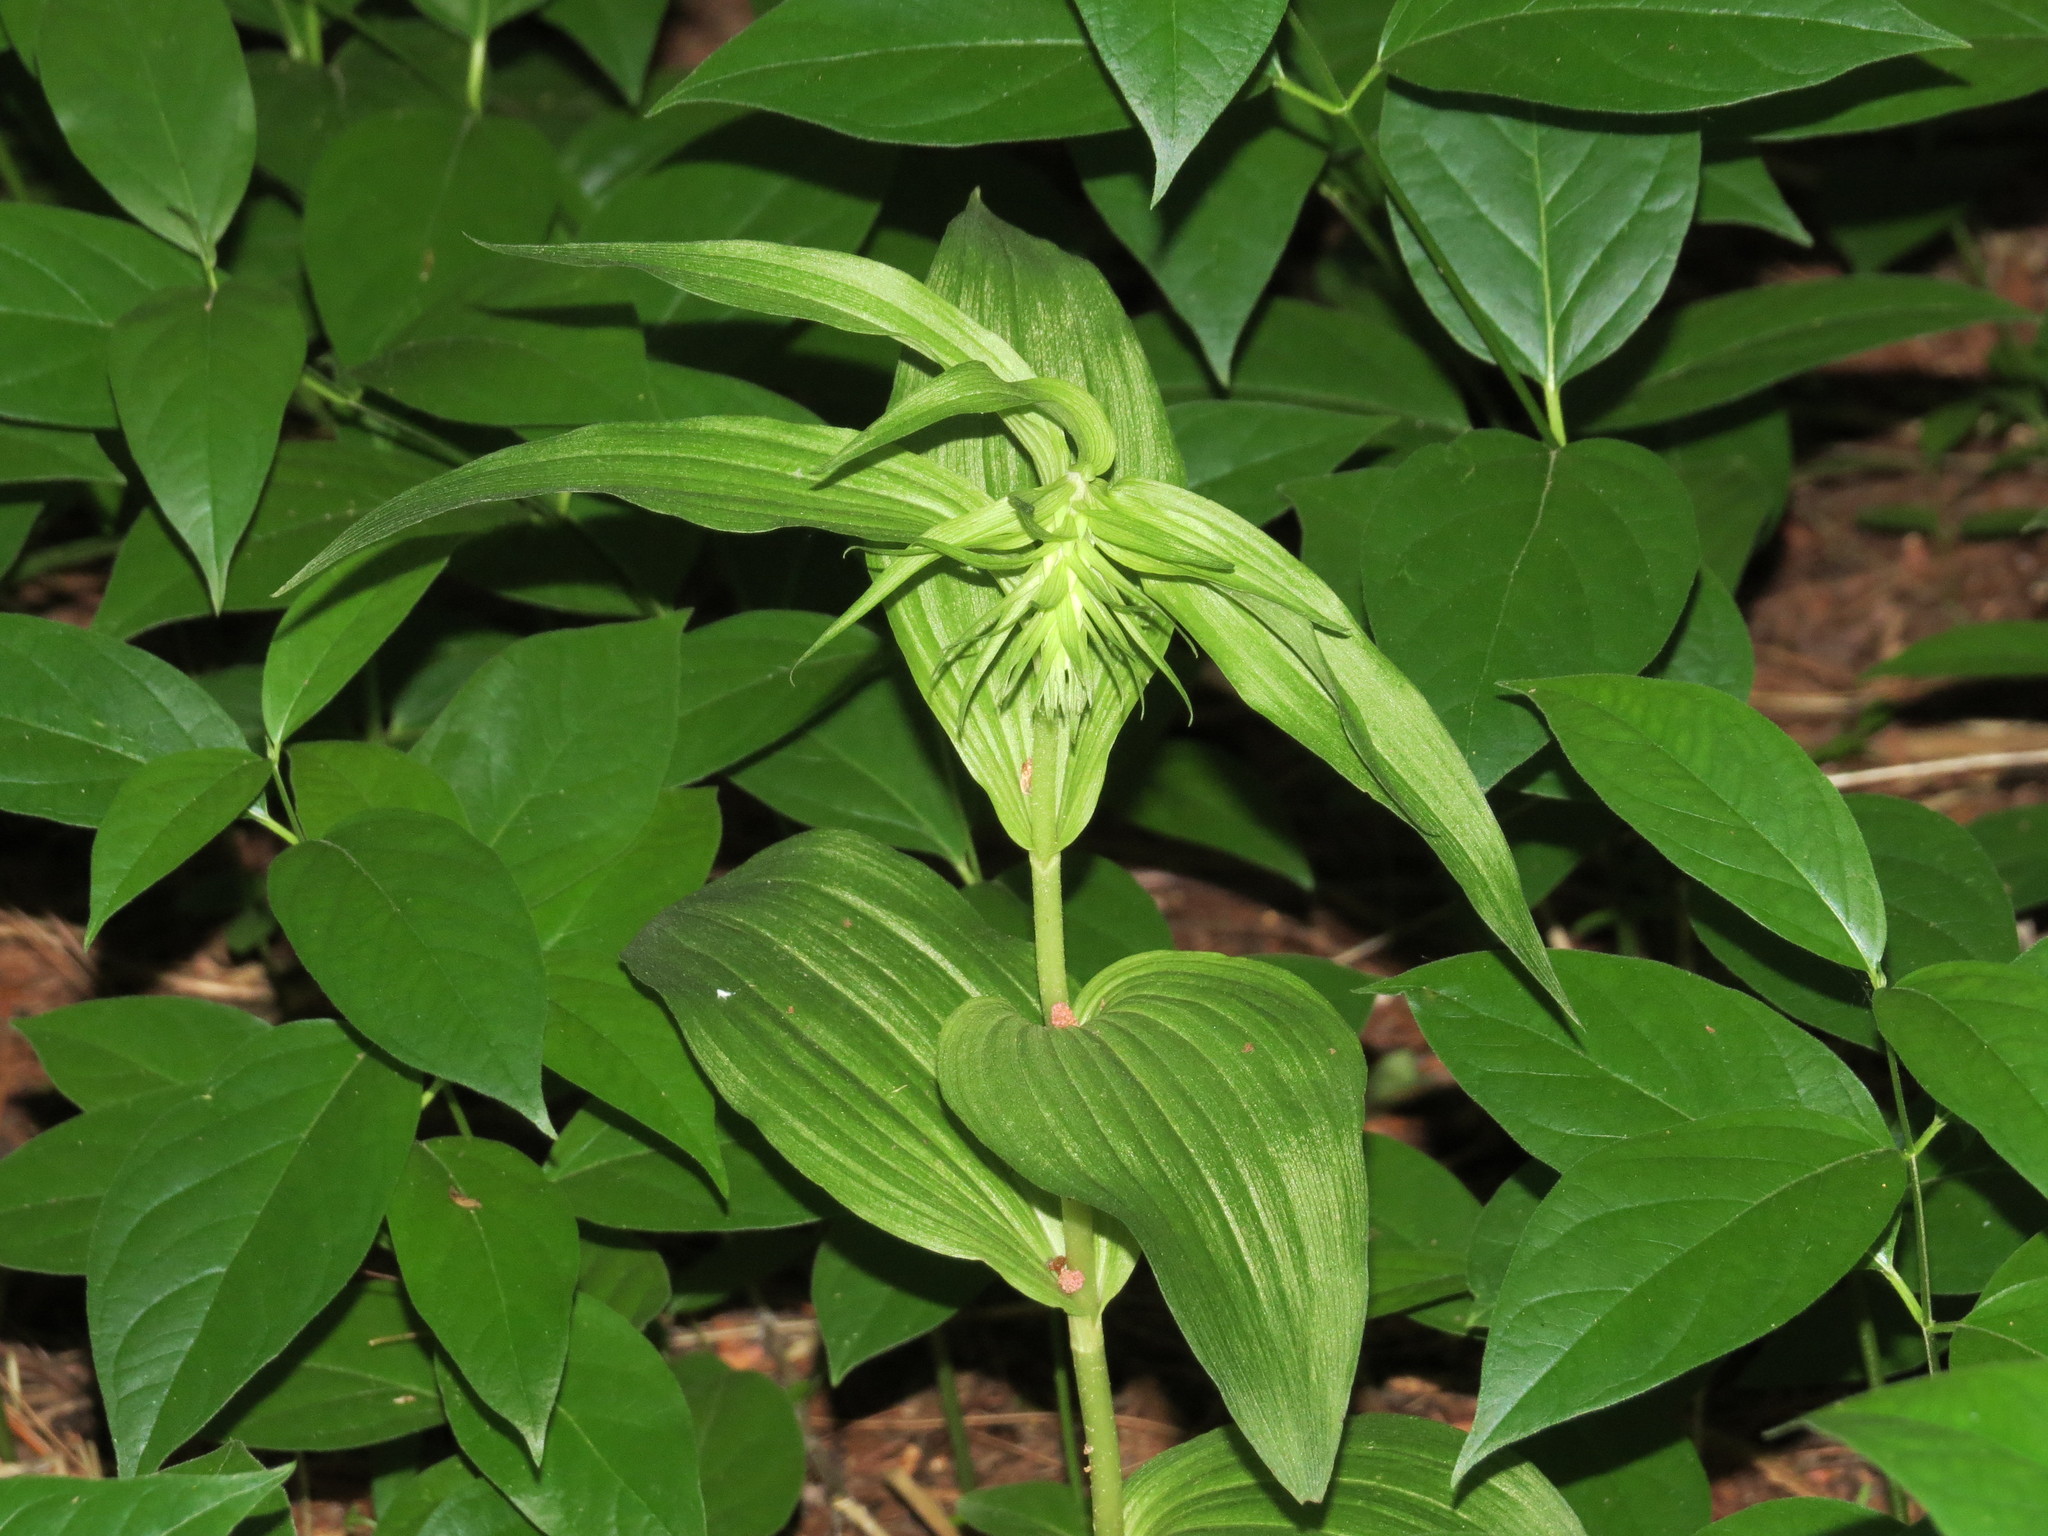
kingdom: Plantae
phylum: Tracheophyta
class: Liliopsida
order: Asparagales
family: Orchidaceae
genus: Epipactis
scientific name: Epipactis helleborine
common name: Broad-leaved helleborine
